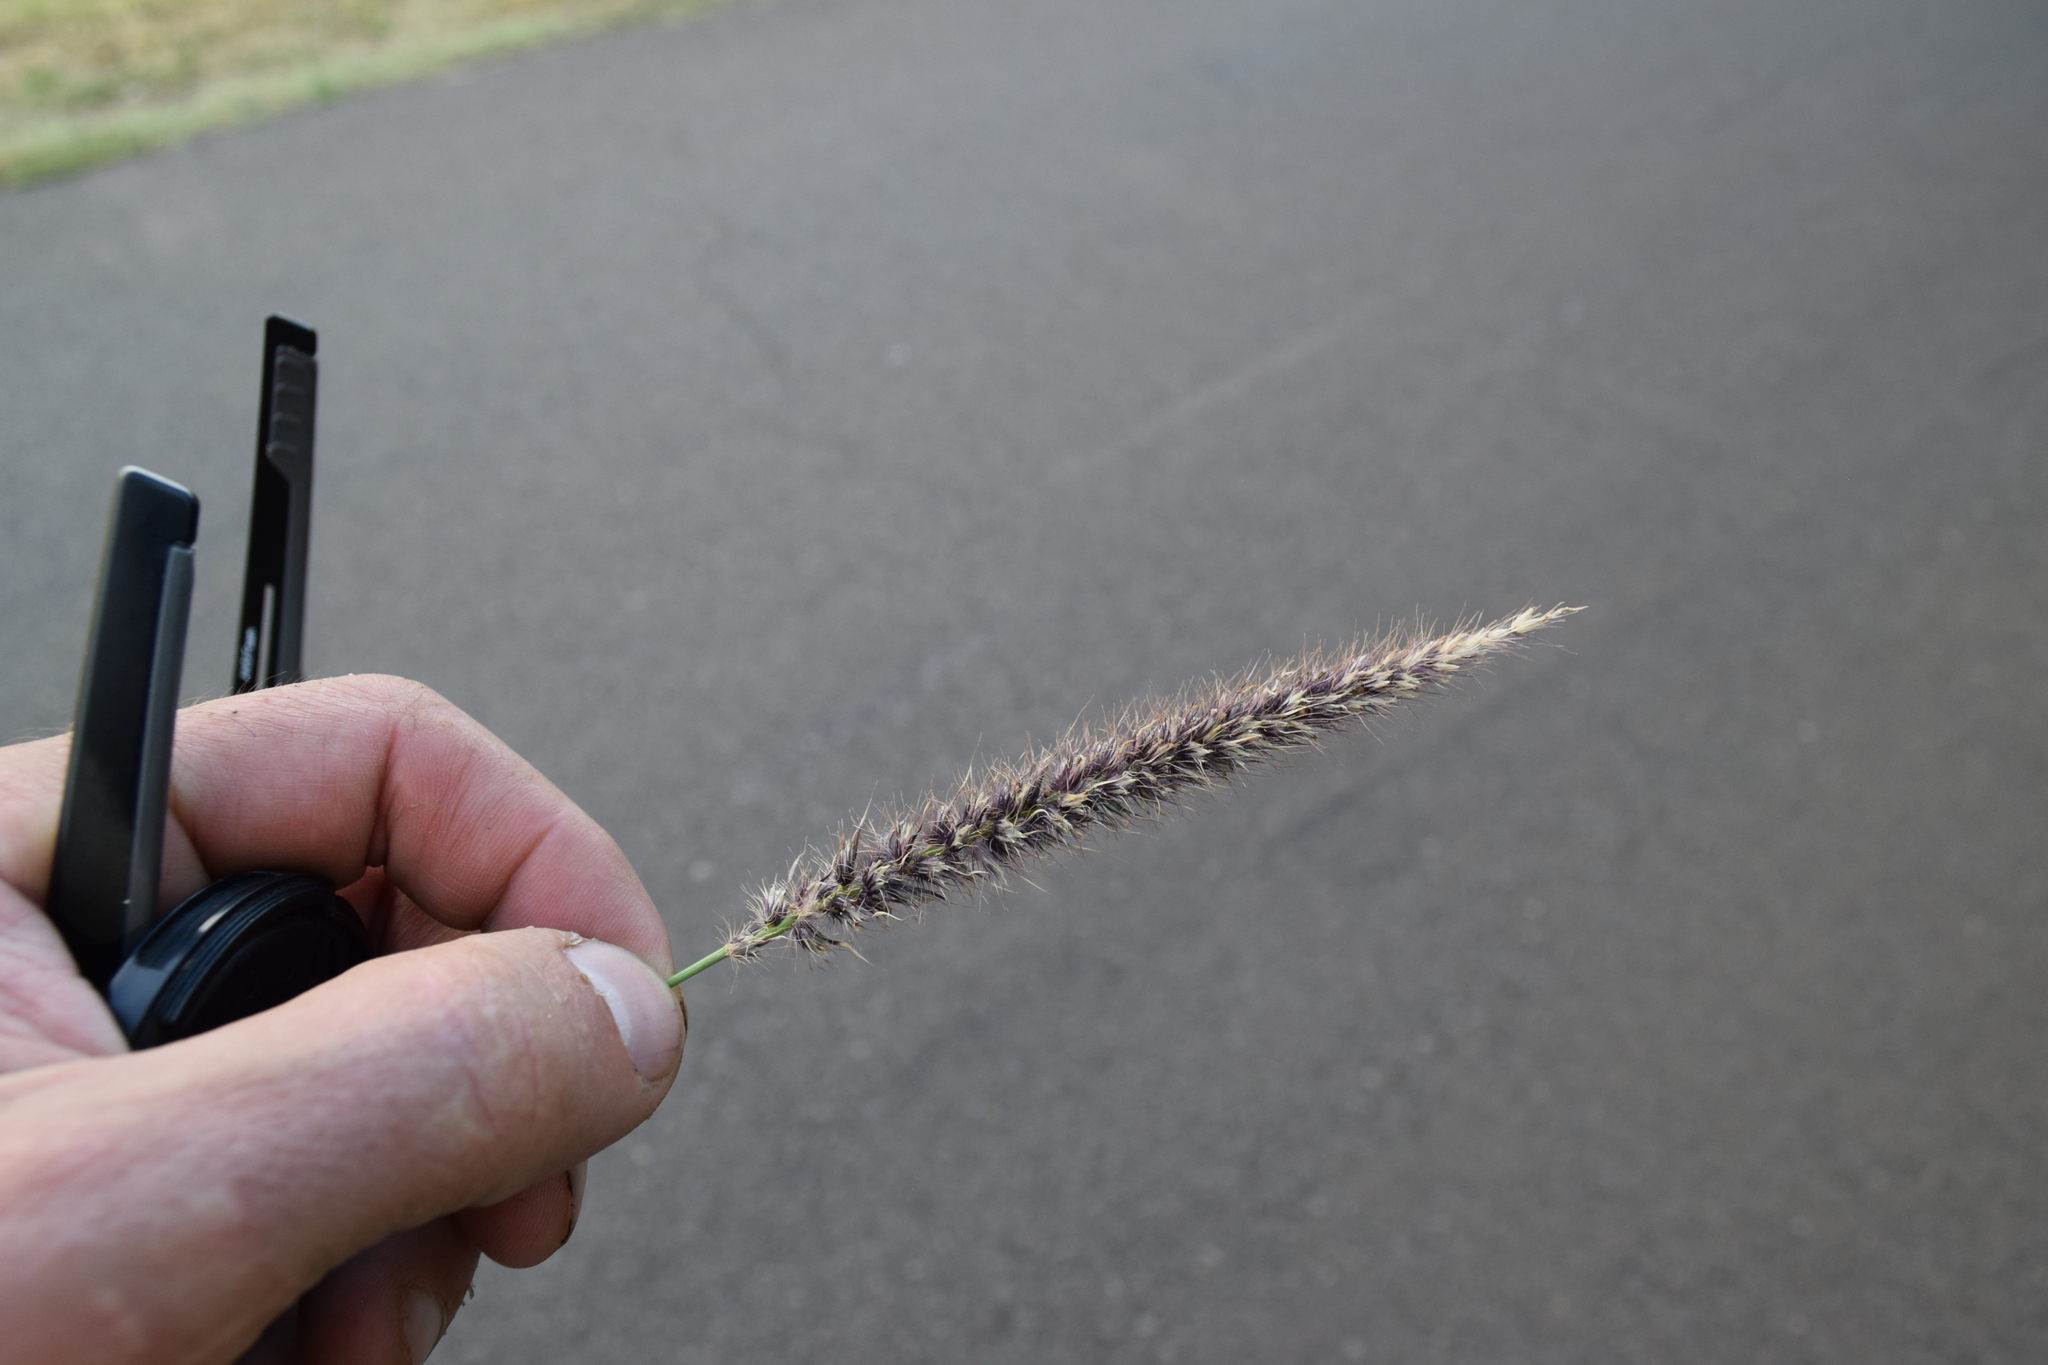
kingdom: Plantae
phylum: Tracheophyta
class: Liliopsida
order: Poales
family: Poaceae
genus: Cenchrus
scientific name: Cenchrus ciliaris
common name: Buffelgrass
